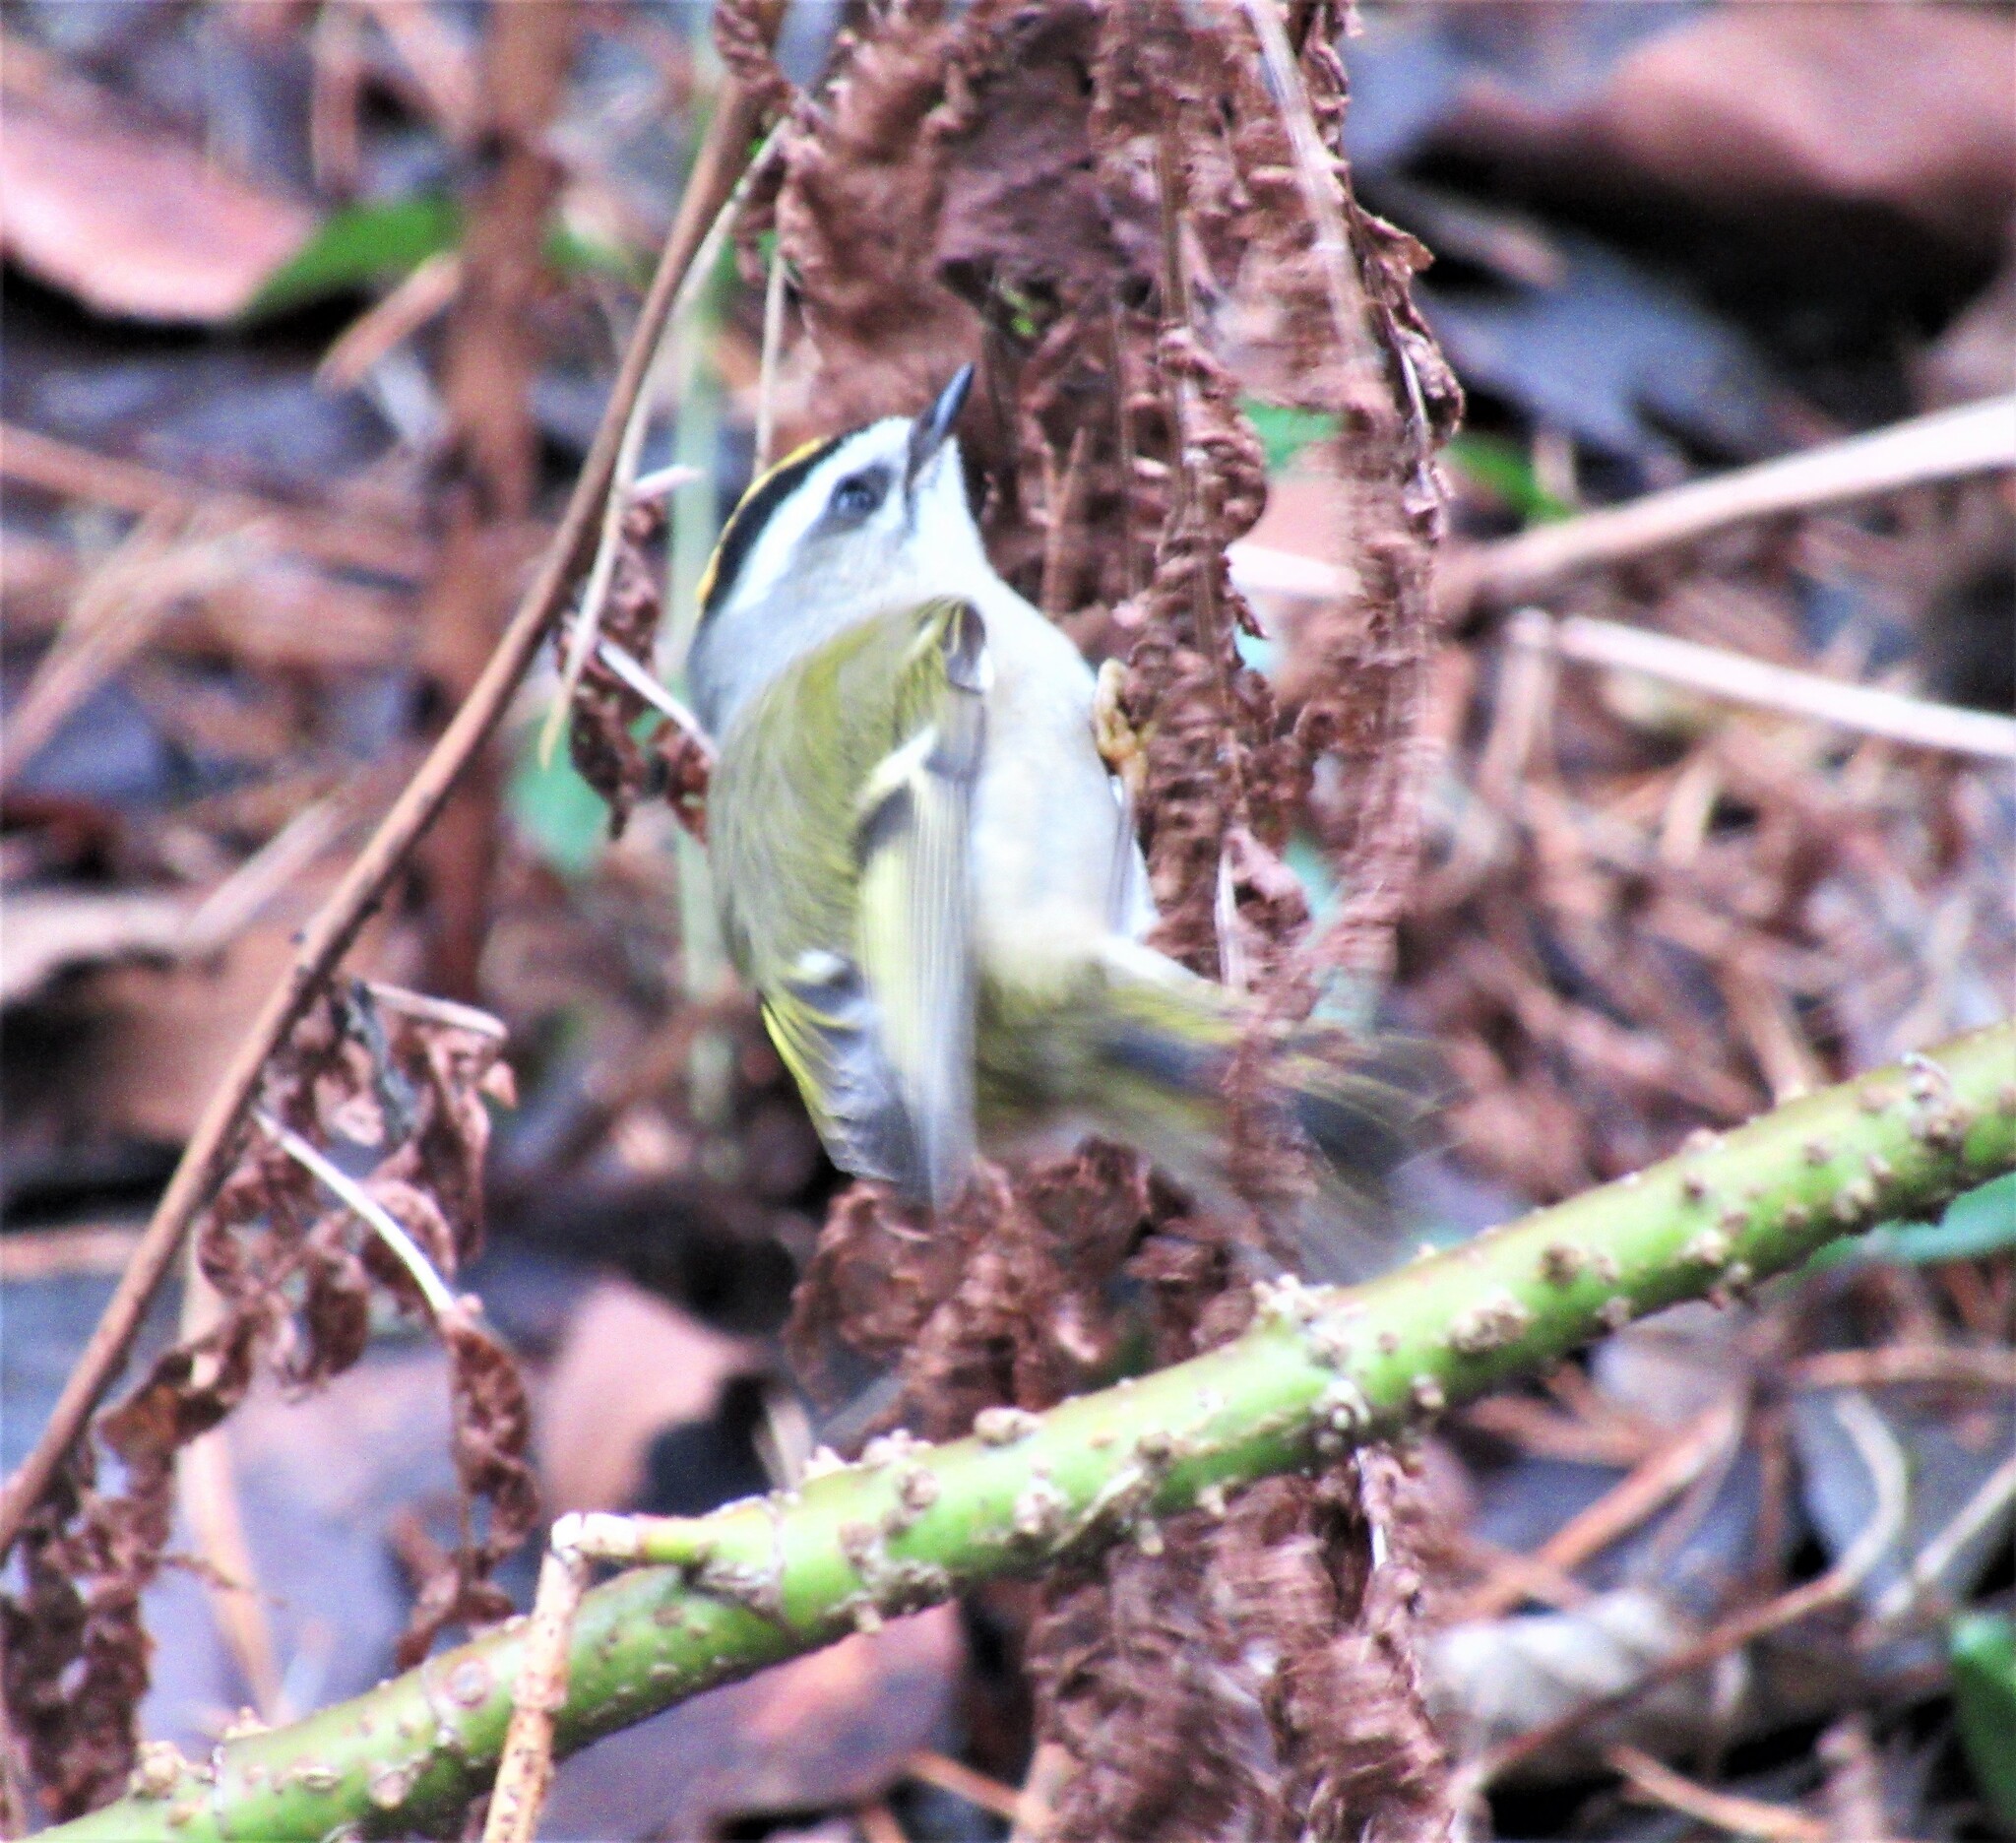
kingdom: Animalia
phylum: Chordata
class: Aves
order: Passeriformes
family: Regulidae
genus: Regulus
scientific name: Regulus satrapa
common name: Golden-crowned kinglet
